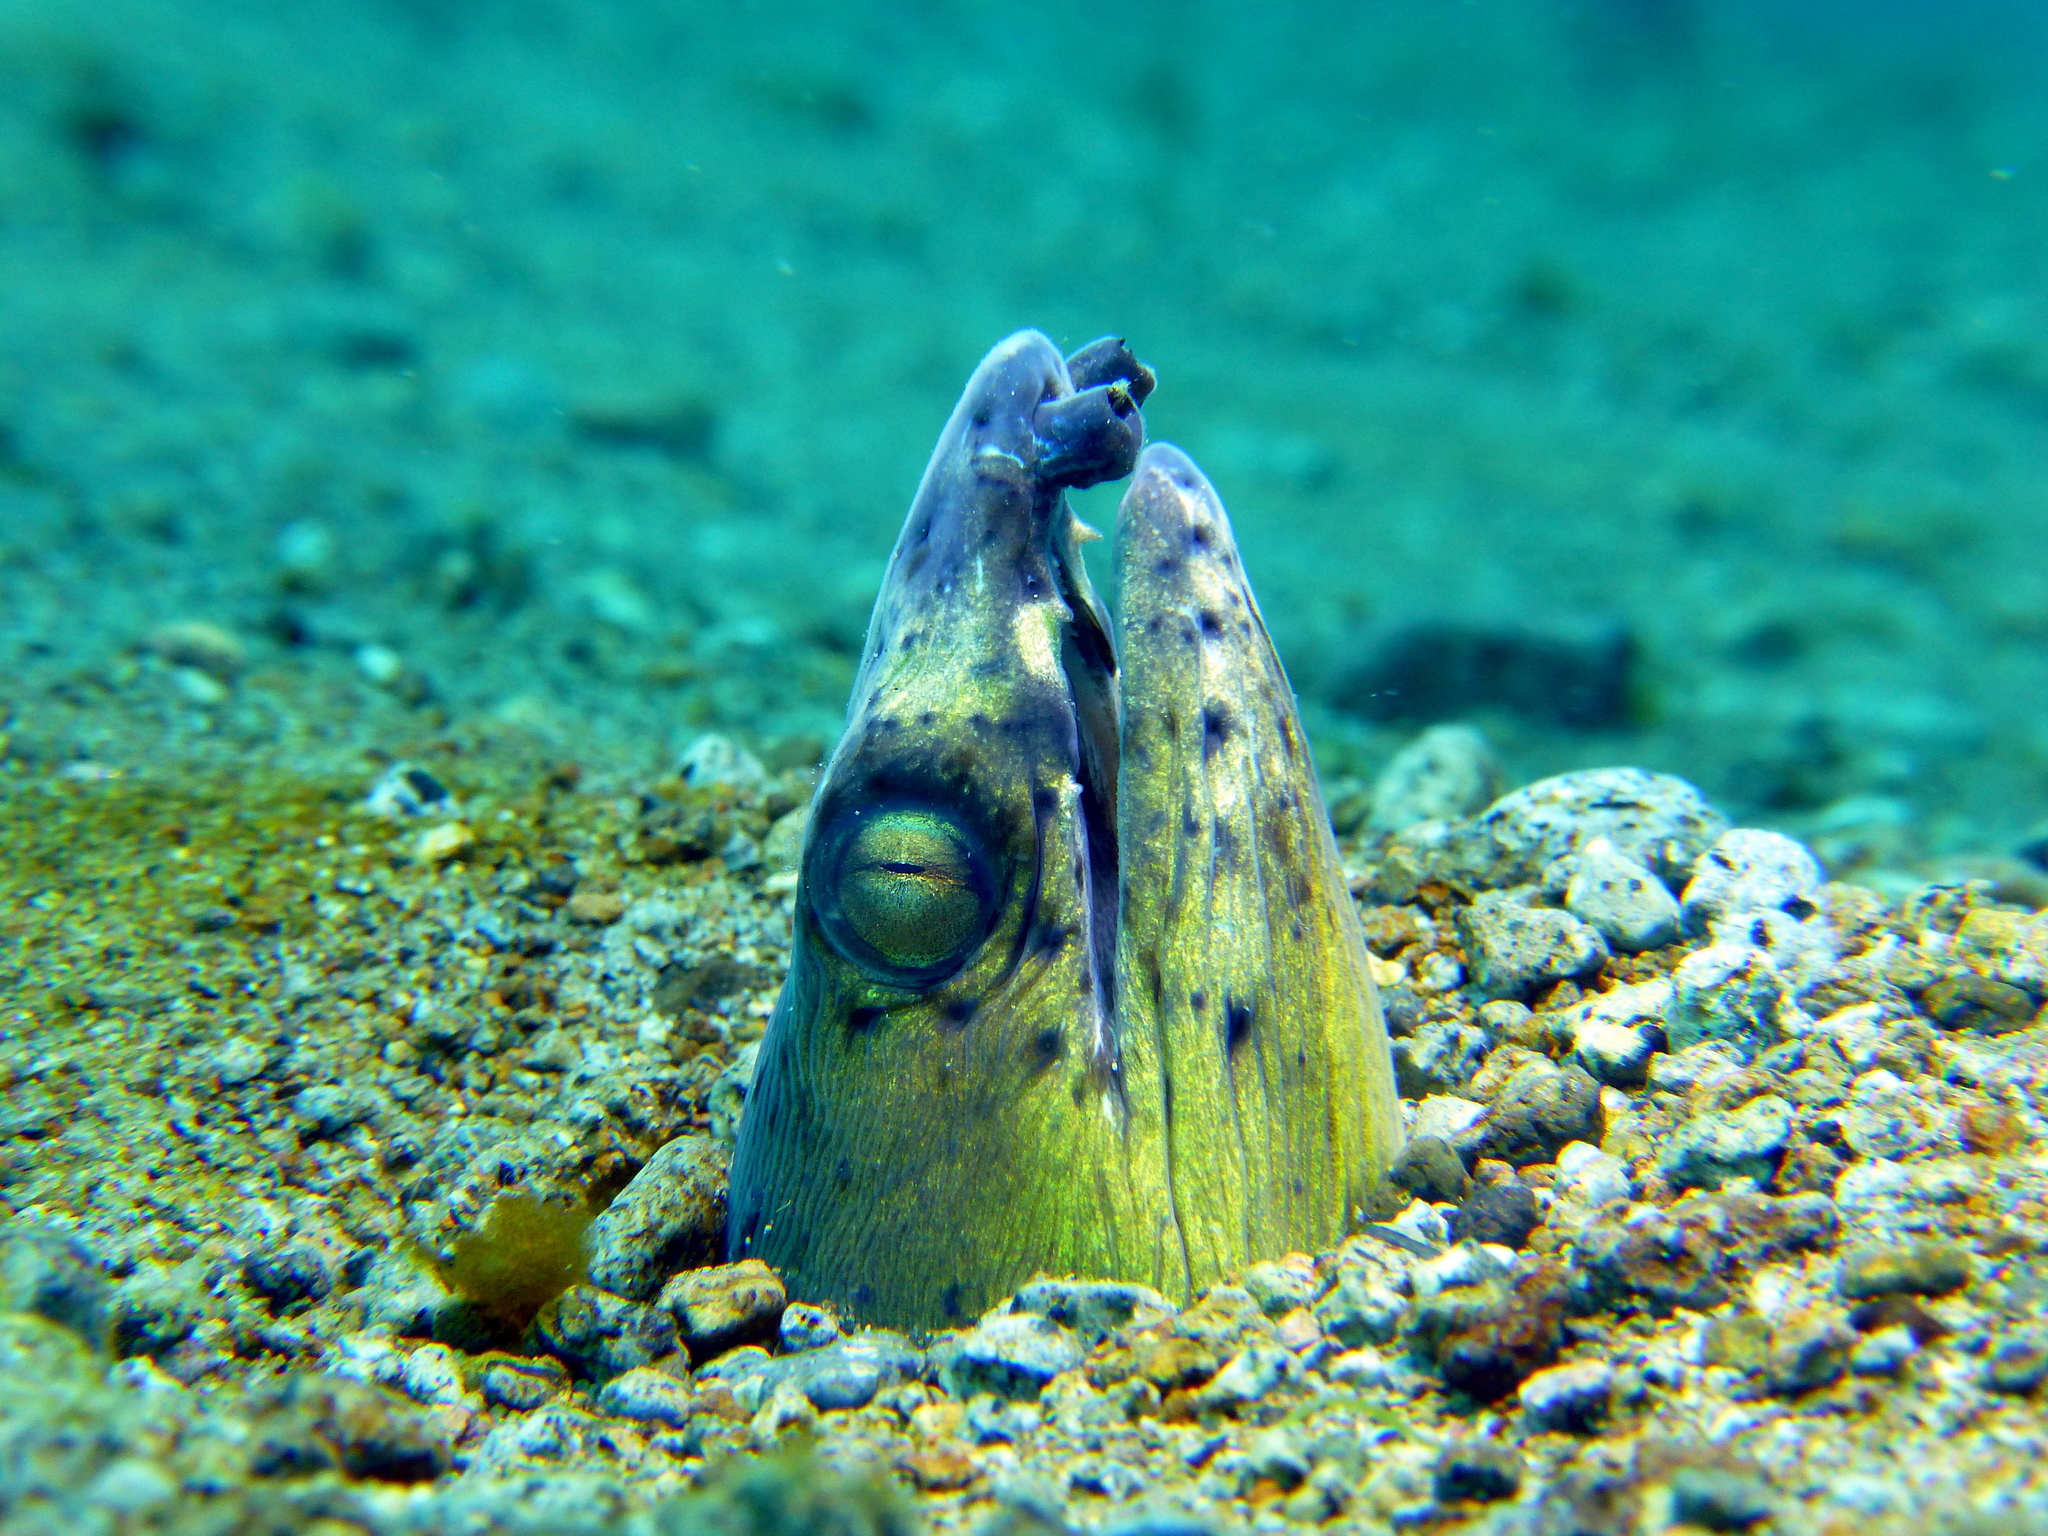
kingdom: Animalia
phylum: Chordata
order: Anguilliformes
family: Ophichthidae
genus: Ophichthus
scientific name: Ophichthus altipennis
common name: Highfin snake eel
